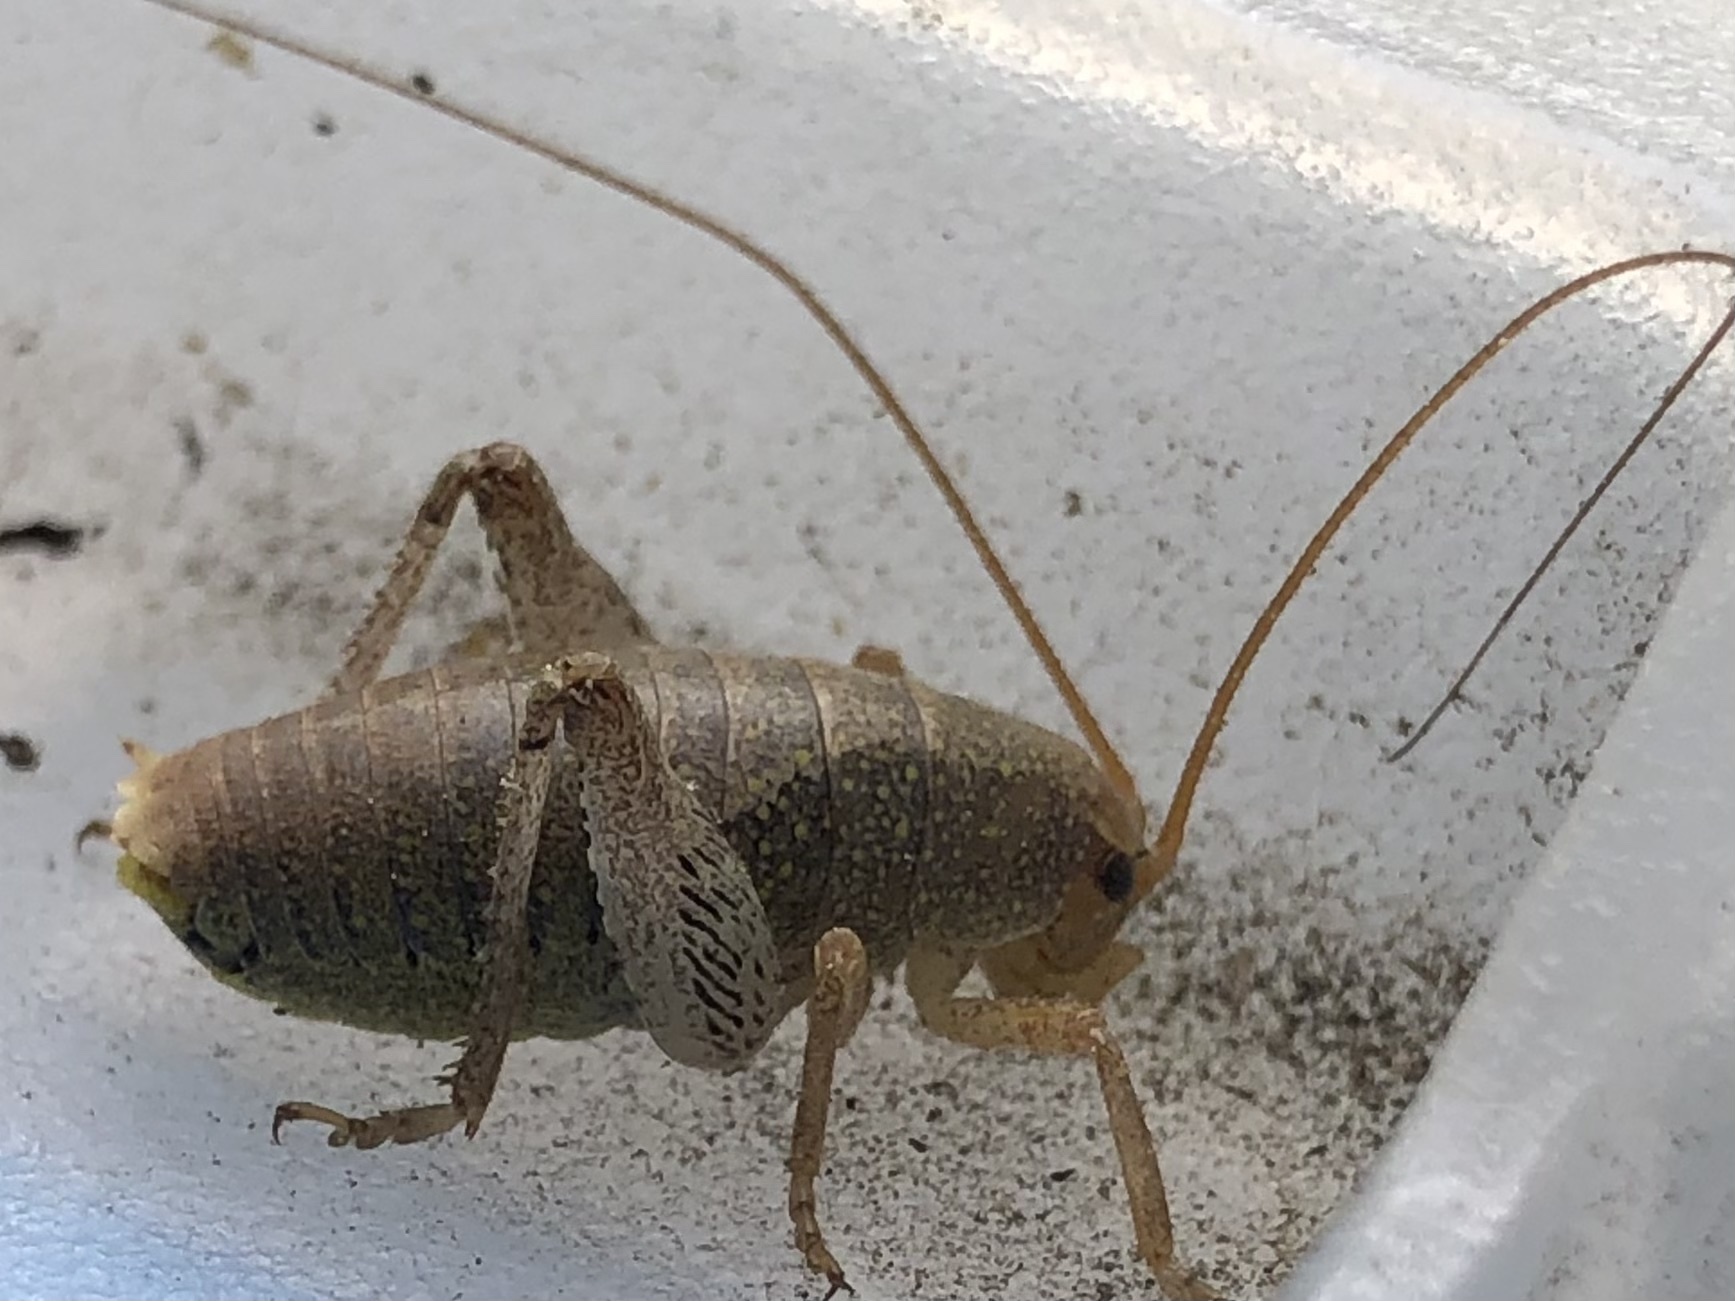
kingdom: Animalia
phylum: Arthropoda
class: Insecta
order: Orthoptera
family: Rhaphidophoridae
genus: Gammarotettix
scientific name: Gammarotettix bilobatus
